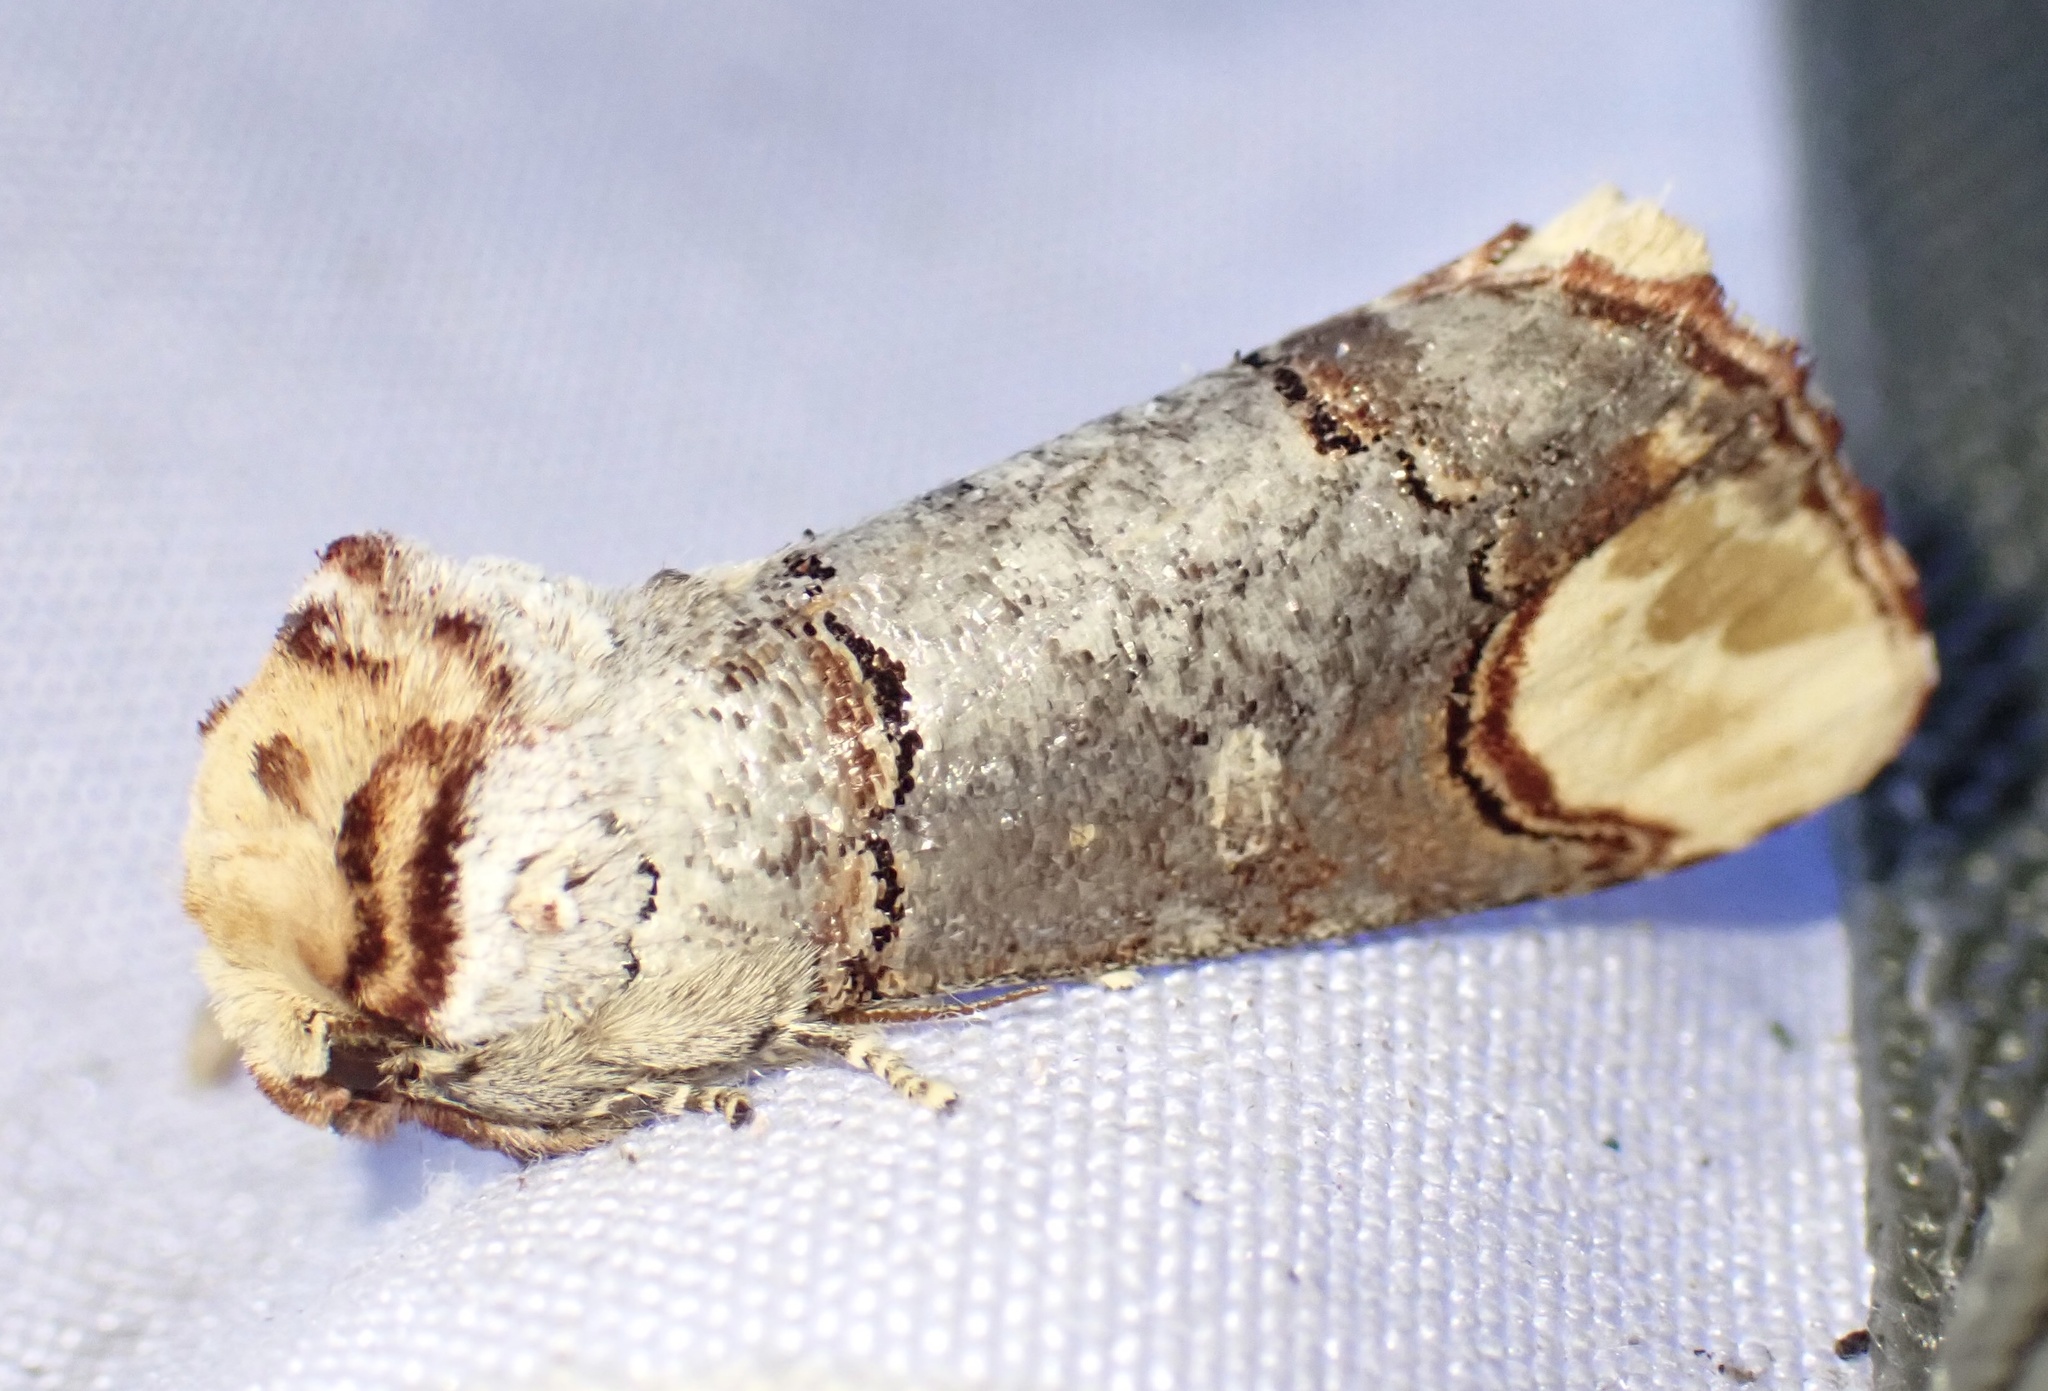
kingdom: Animalia
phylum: Arthropoda
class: Insecta
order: Lepidoptera
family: Notodontidae
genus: Phalera
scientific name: Phalera bucephala
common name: Buff-tip
